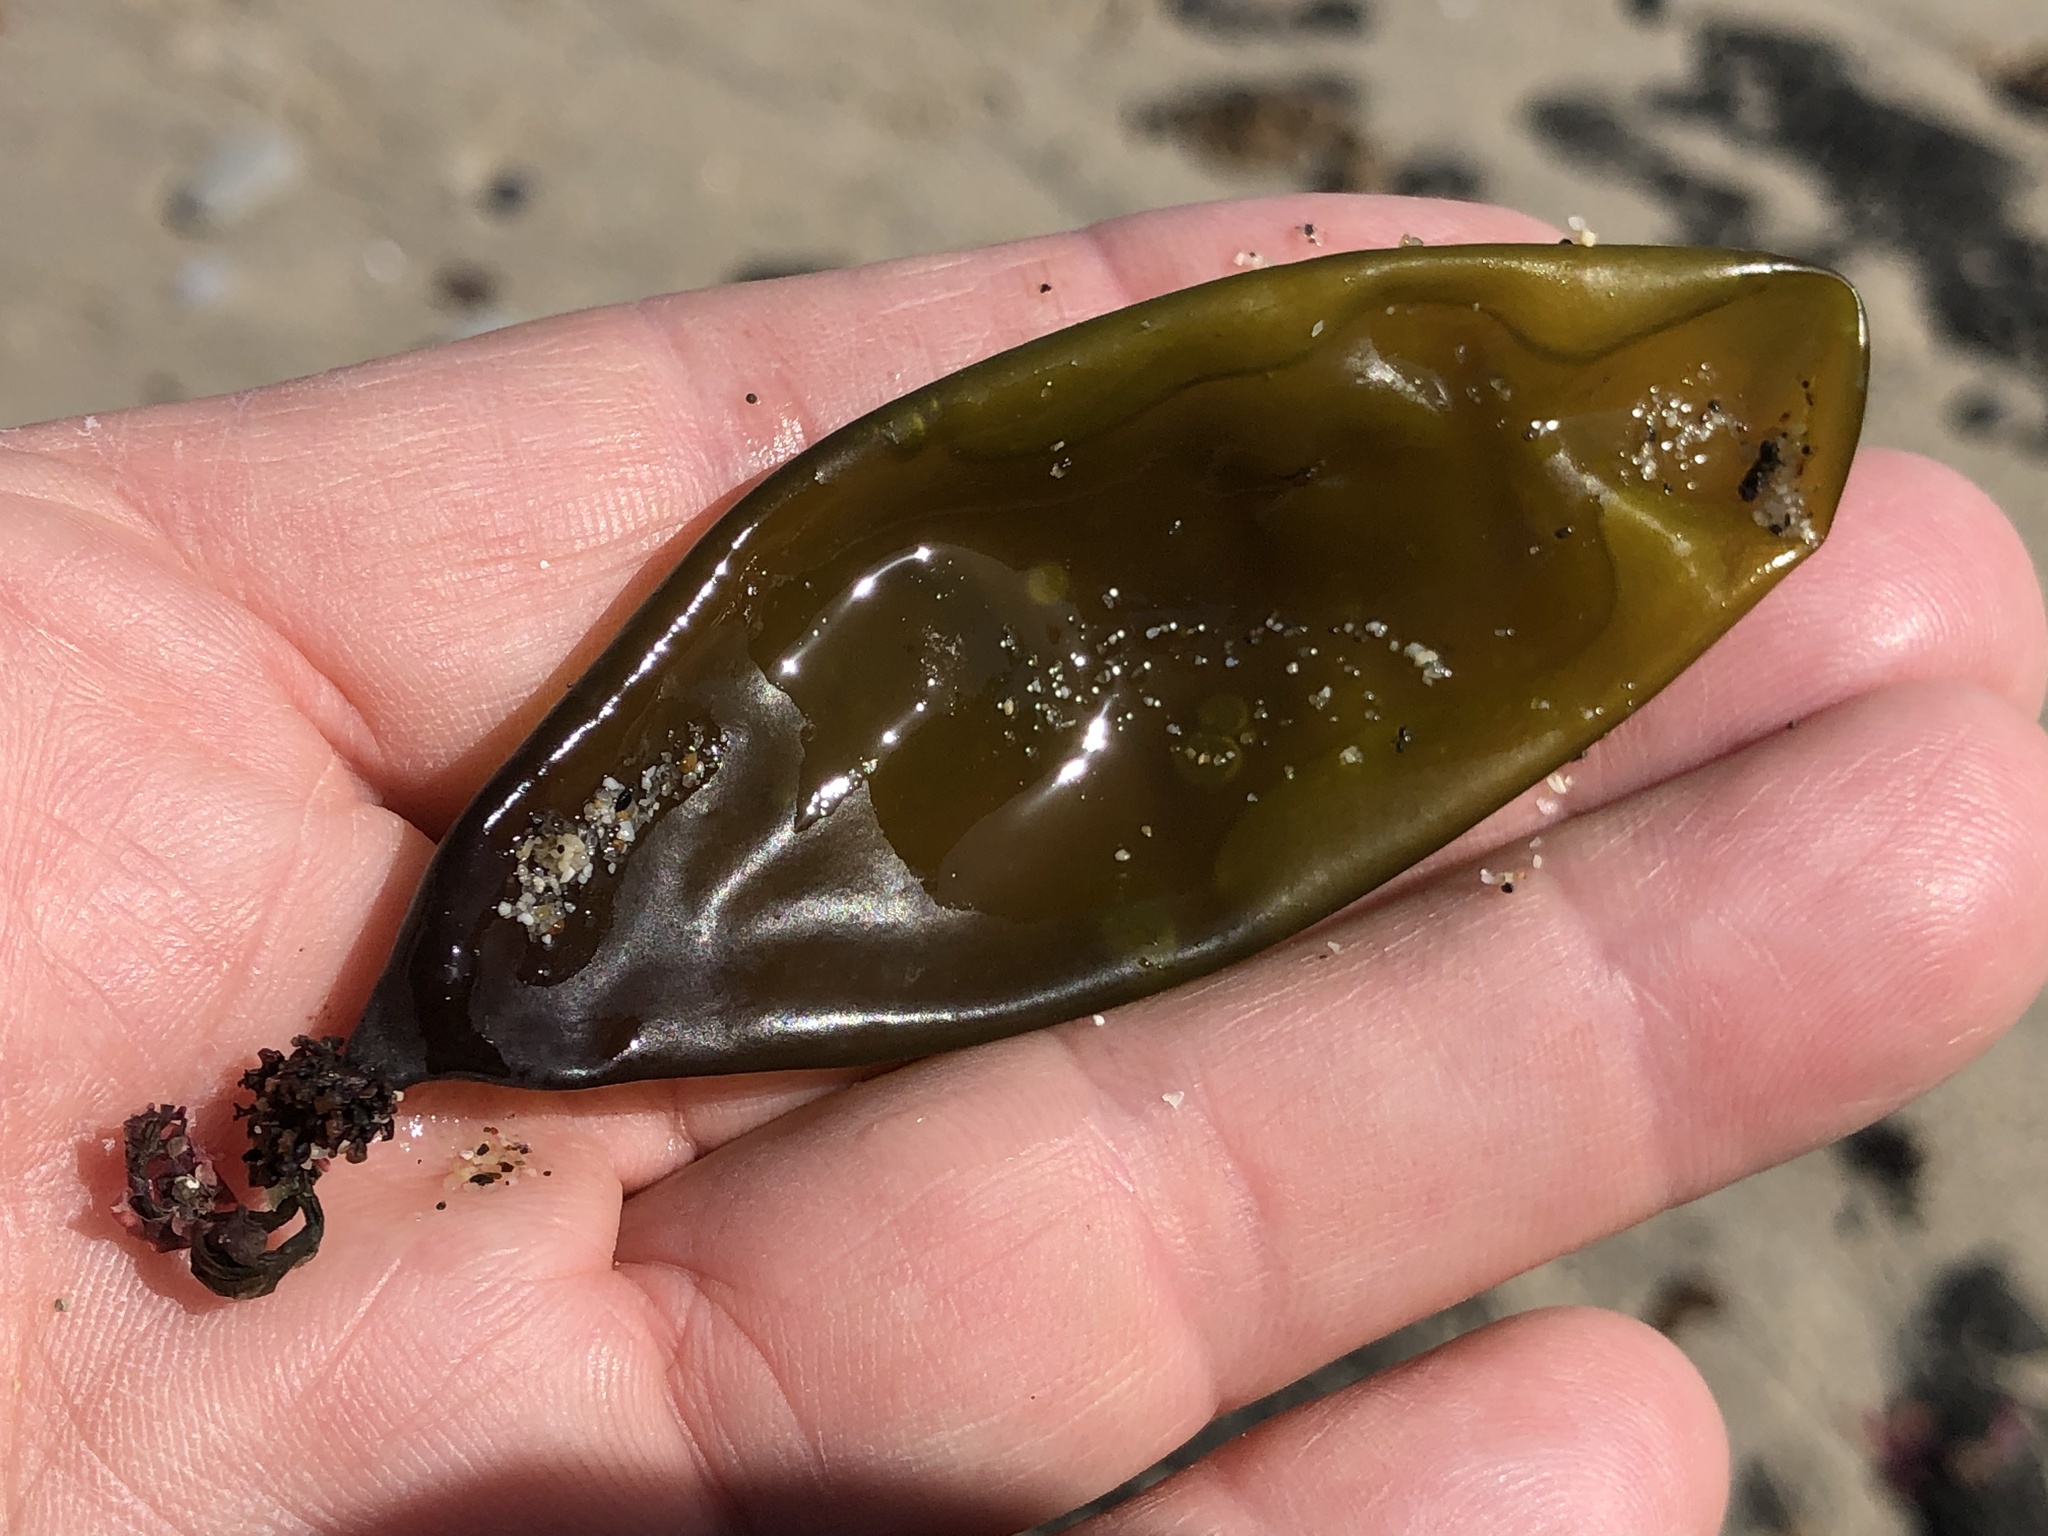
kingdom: Plantae
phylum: Rhodophyta
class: Florideophyceae
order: Palmariales
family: Palmariaceae
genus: Halosaccion
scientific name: Halosaccion glandiforme
